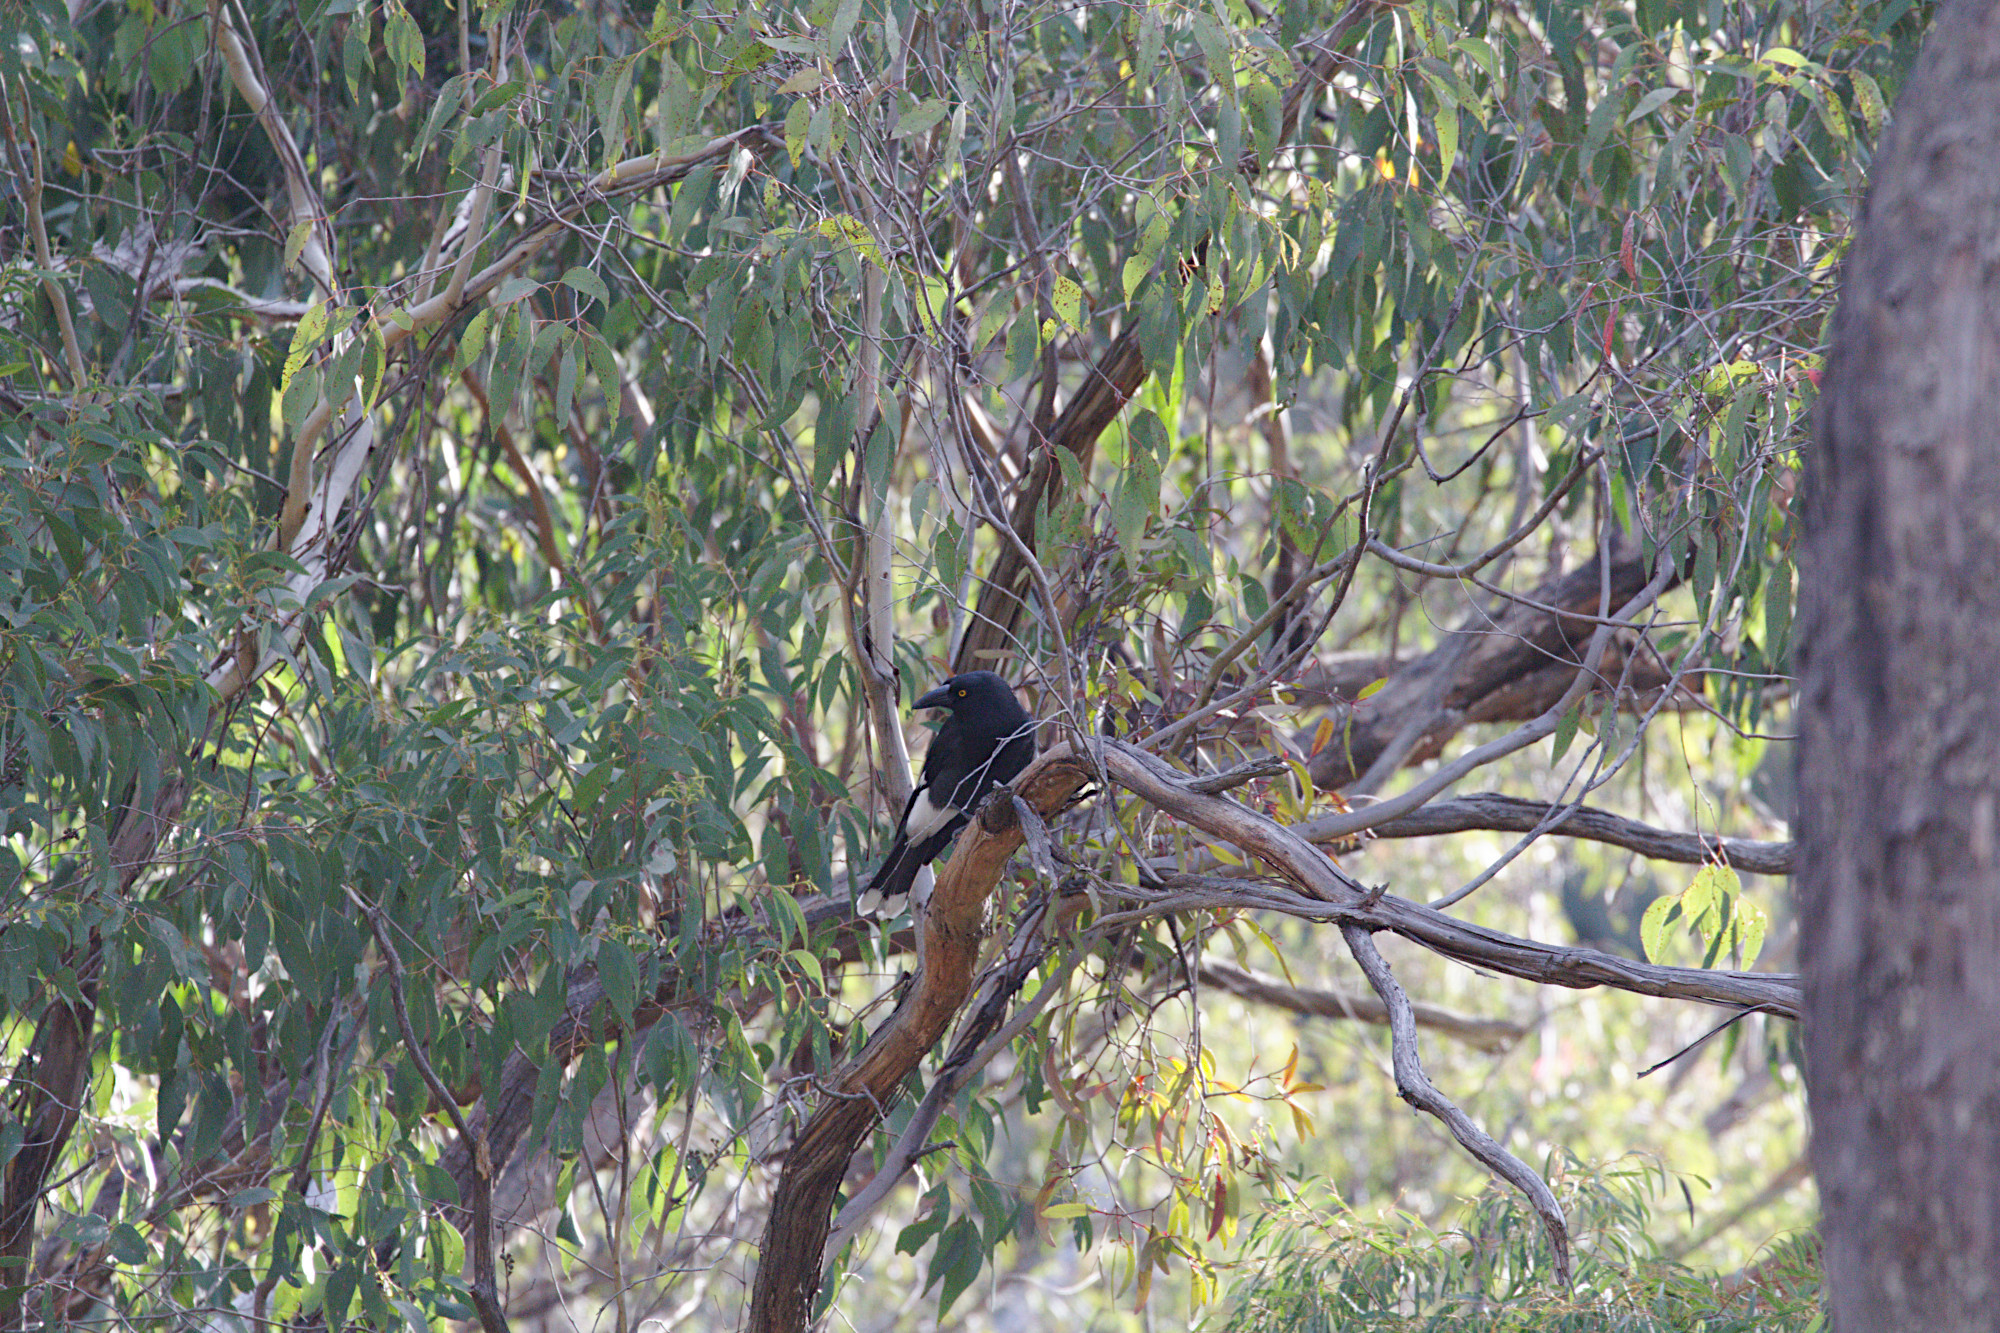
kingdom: Animalia
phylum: Chordata
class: Aves
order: Passeriformes
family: Cracticidae
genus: Strepera
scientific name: Strepera graculina
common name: Pied currawong
